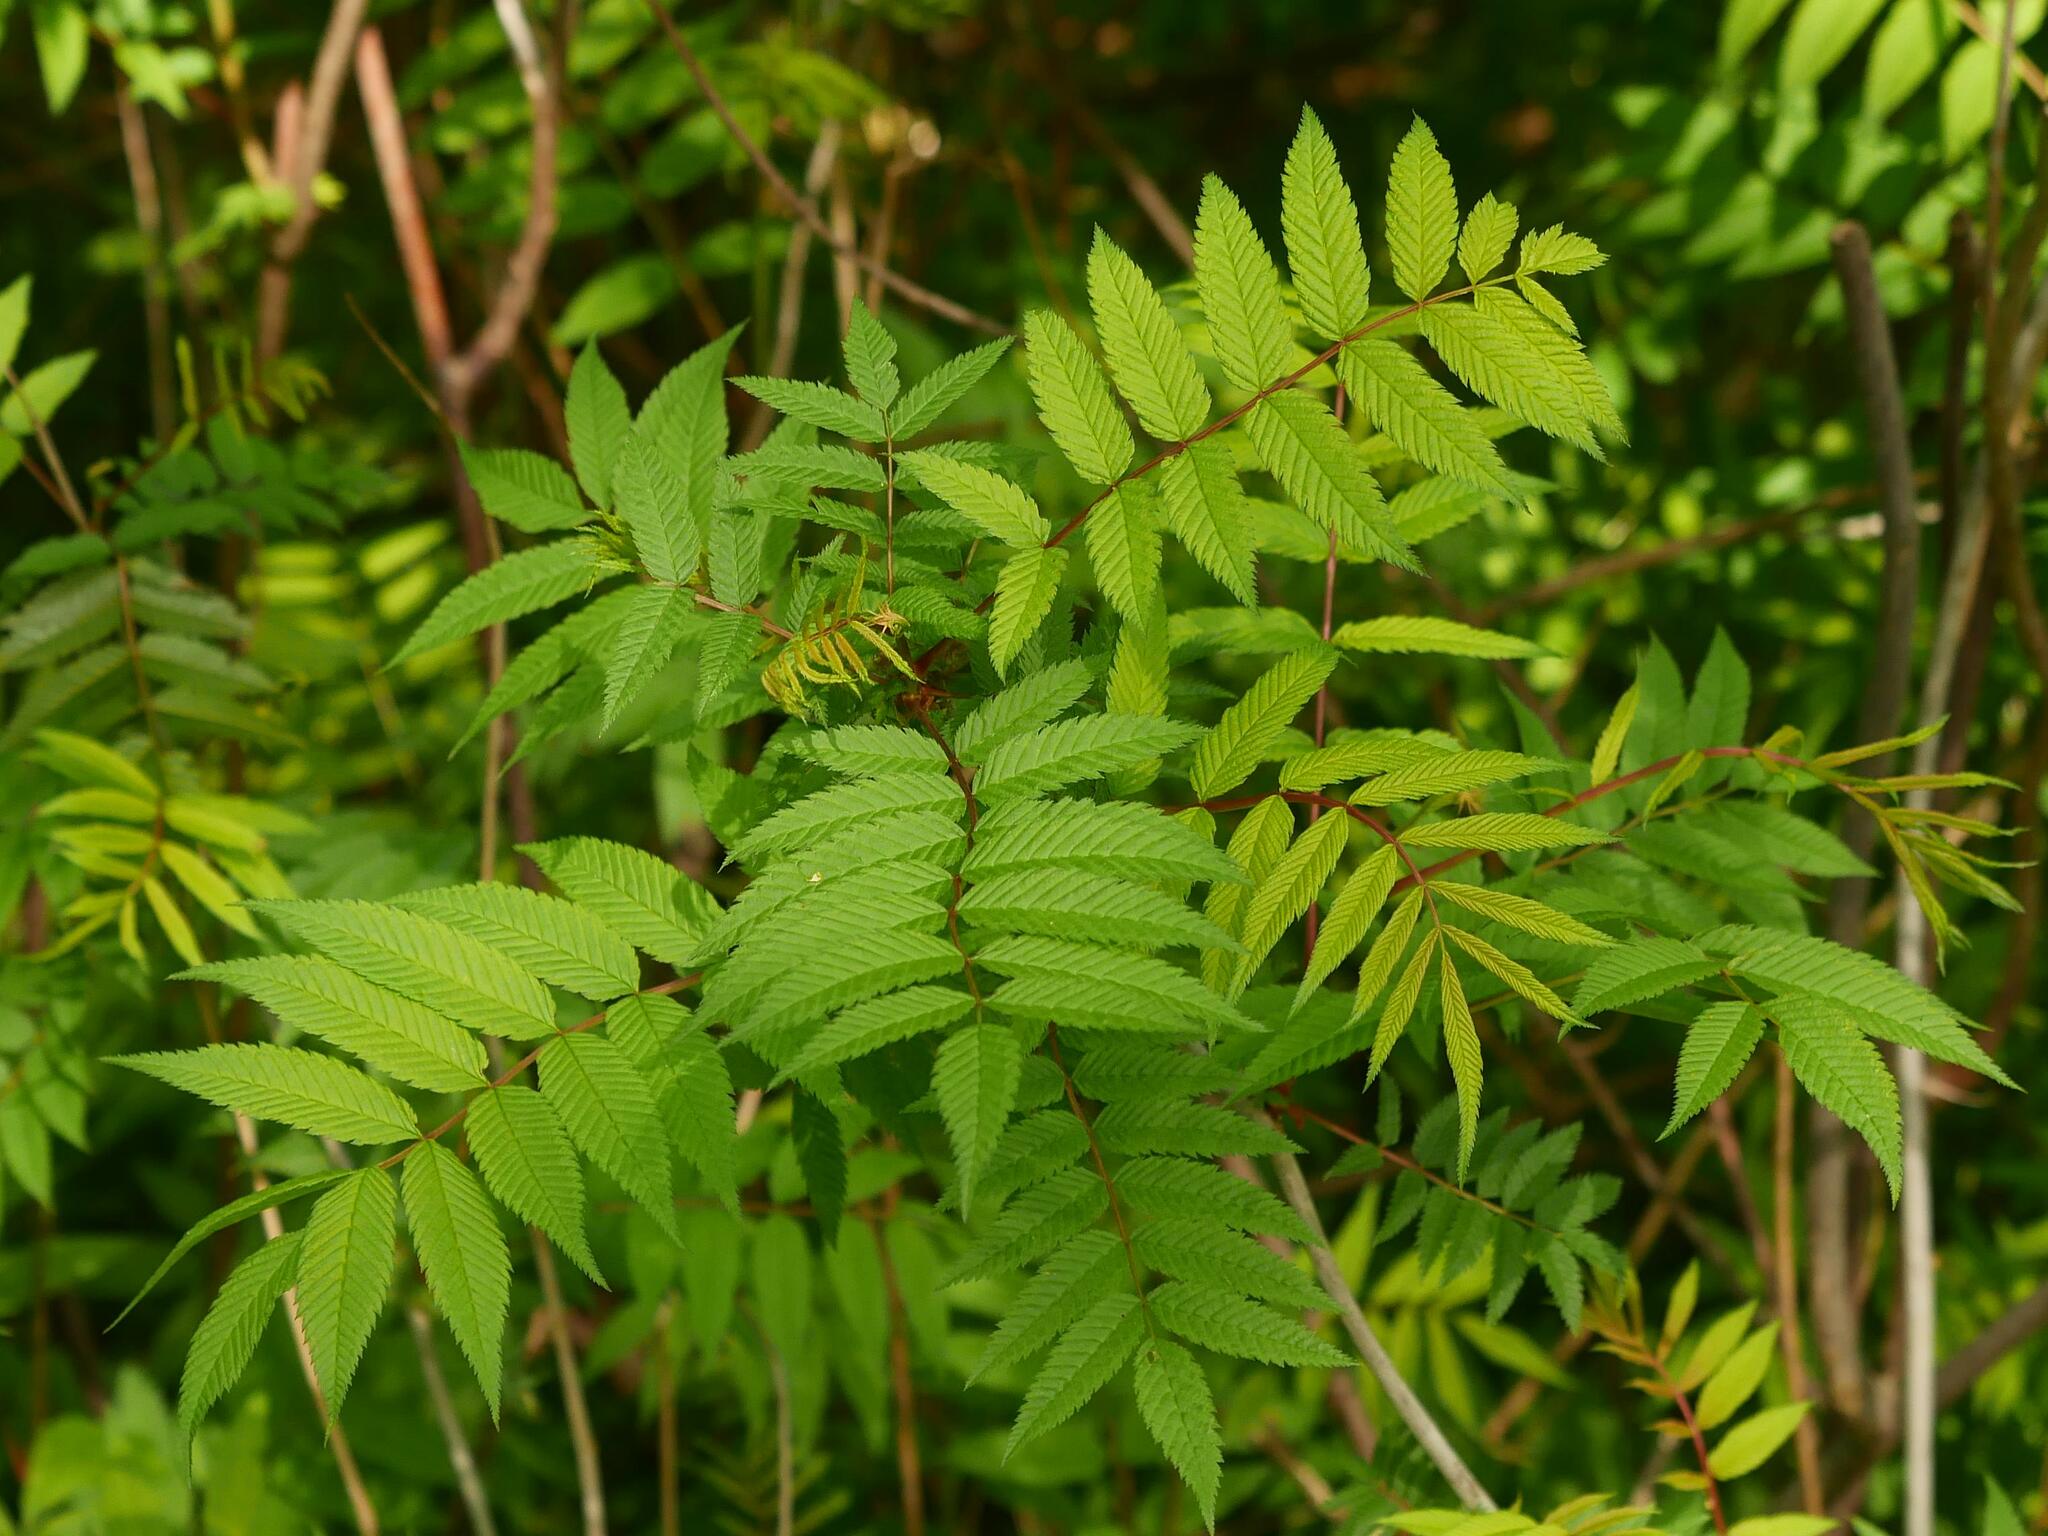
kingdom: Plantae
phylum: Tracheophyta
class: Magnoliopsida
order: Rosales
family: Rosaceae
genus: Sorbaria
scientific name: Sorbaria sorbifolia
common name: False spiraea
